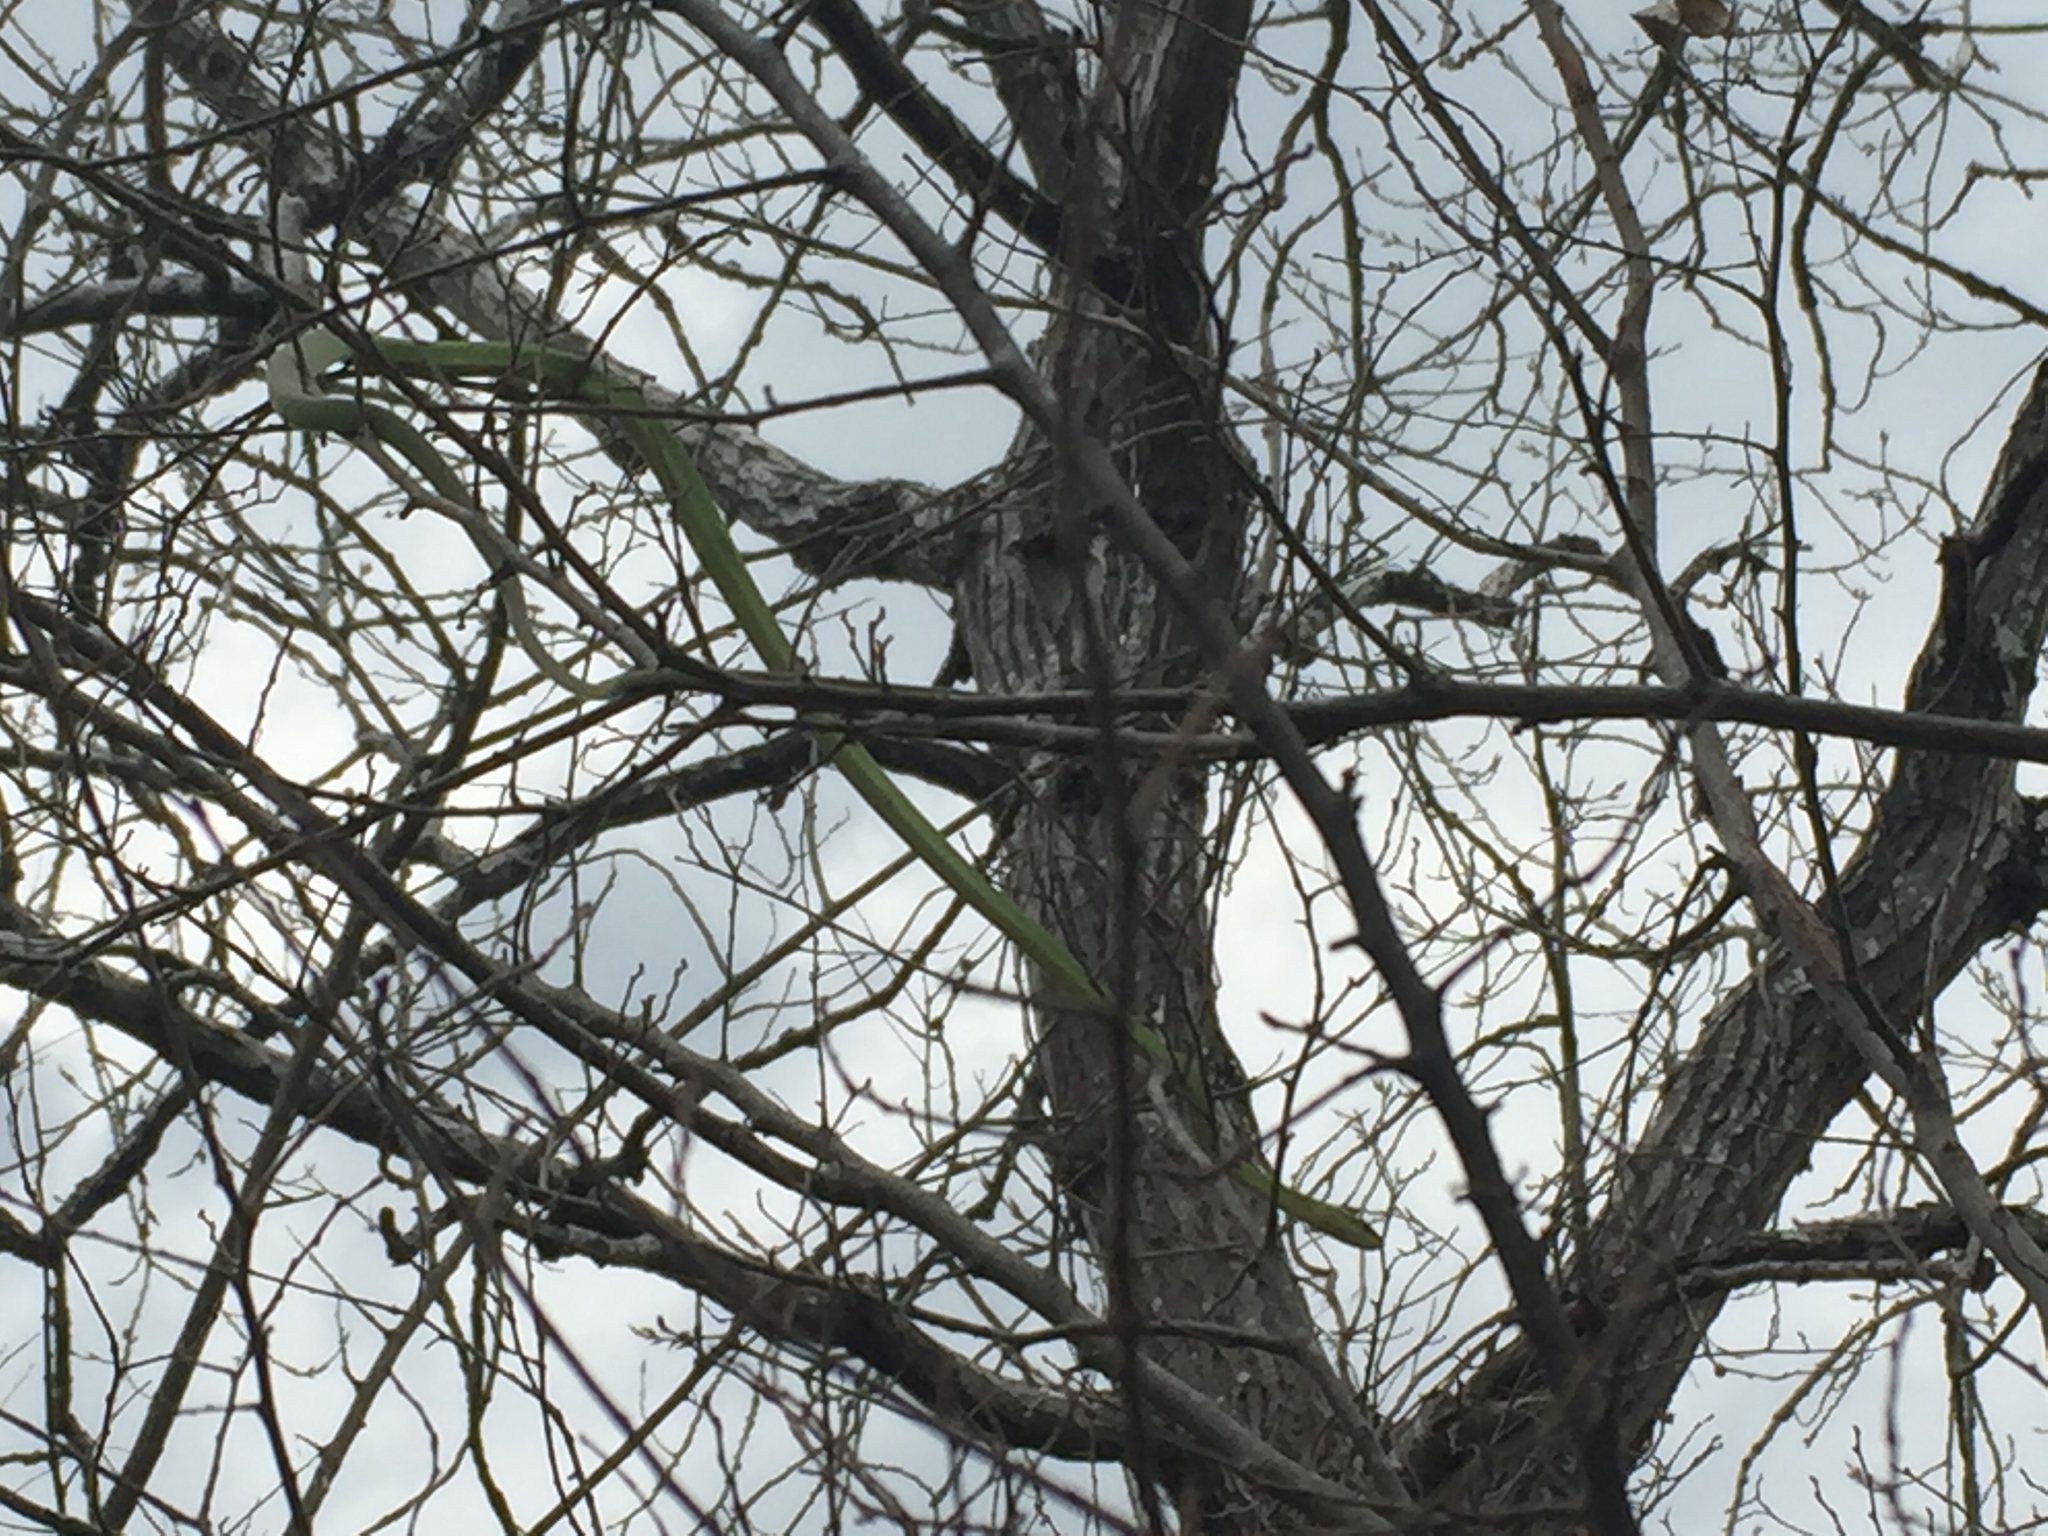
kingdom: Animalia
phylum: Chordata
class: Squamata
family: Colubridae
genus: Opheodrys
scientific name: Opheodrys aestivus
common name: Rough greensnake
